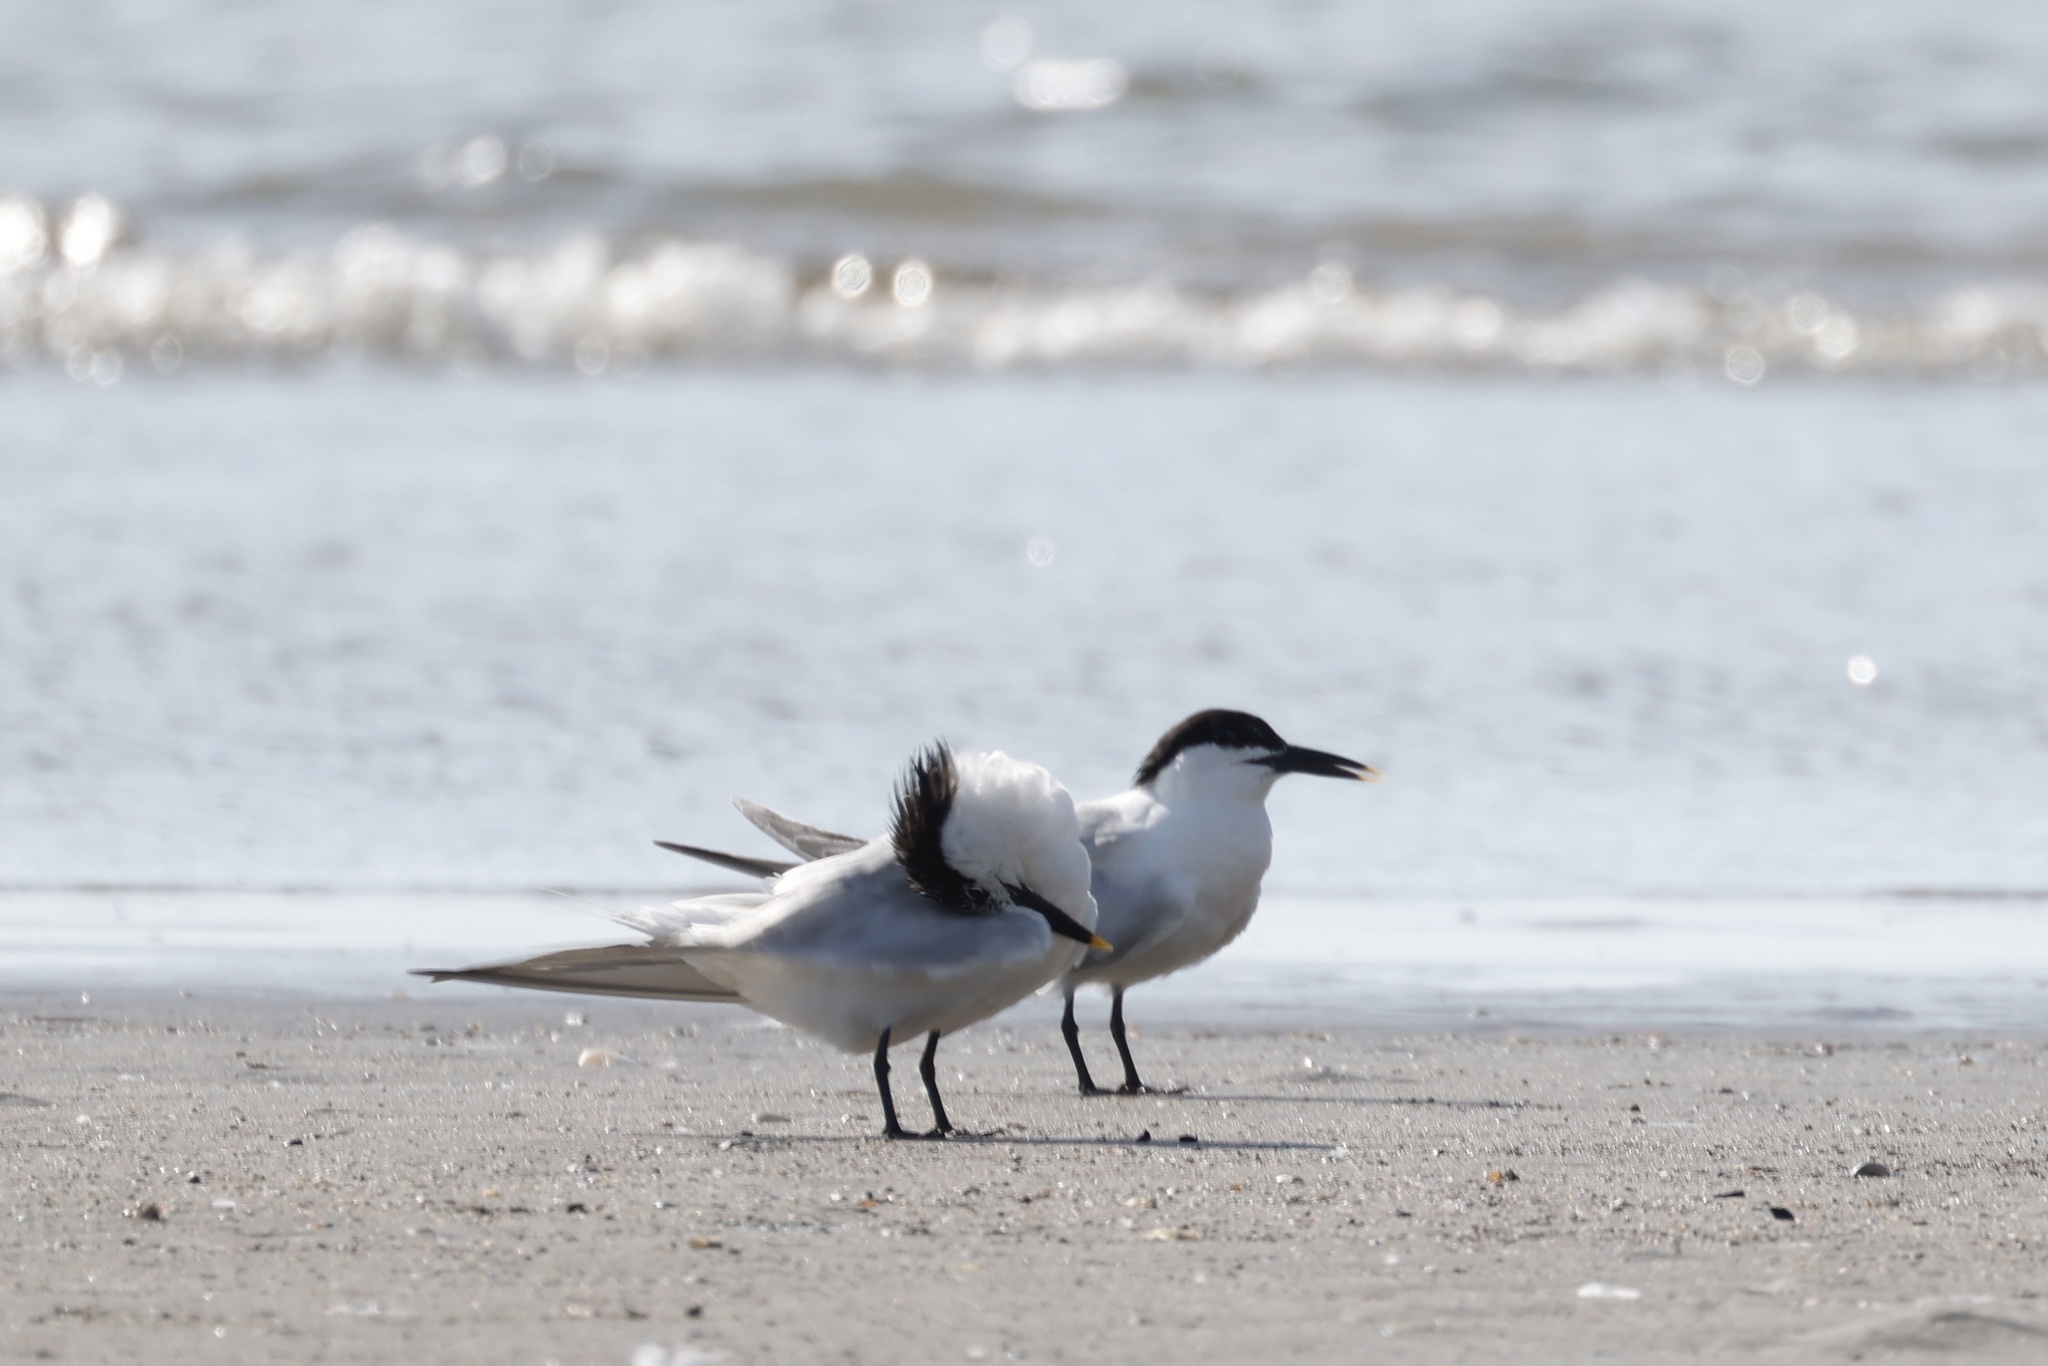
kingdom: Animalia
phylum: Chordata
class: Aves
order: Charadriiformes
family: Laridae
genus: Thalasseus
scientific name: Thalasseus sandvicensis
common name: Sandwich tern
